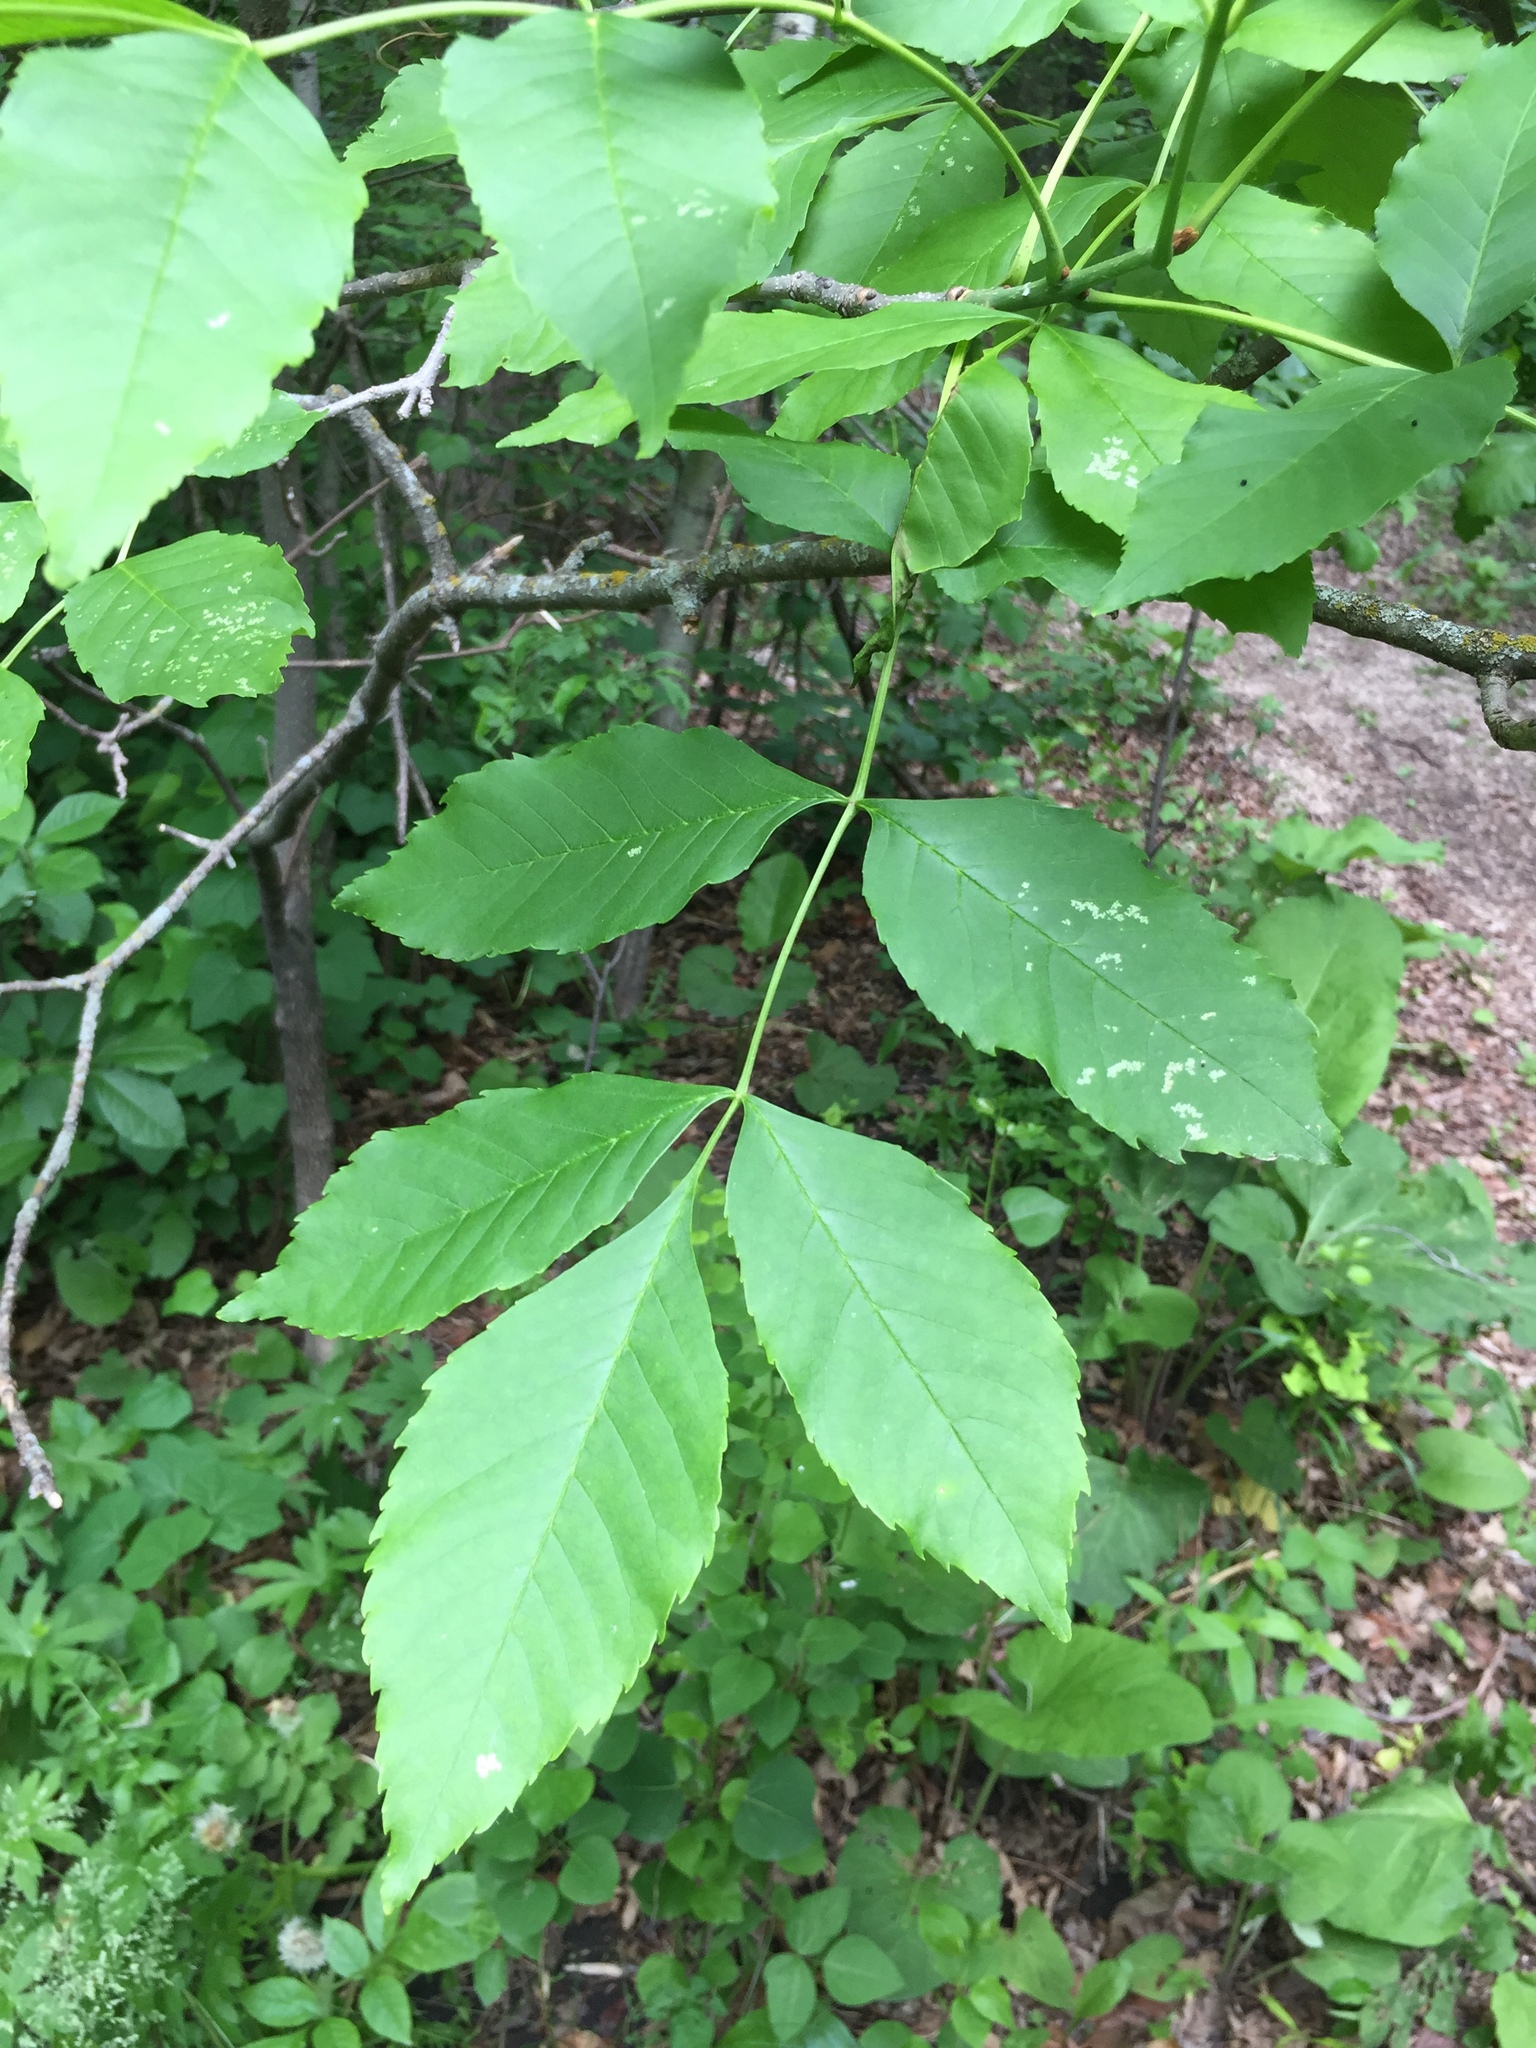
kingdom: Plantae
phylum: Tracheophyta
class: Magnoliopsida
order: Lamiales
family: Oleaceae
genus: Fraxinus
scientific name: Fraxinus pennsylvanica
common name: Green ash
